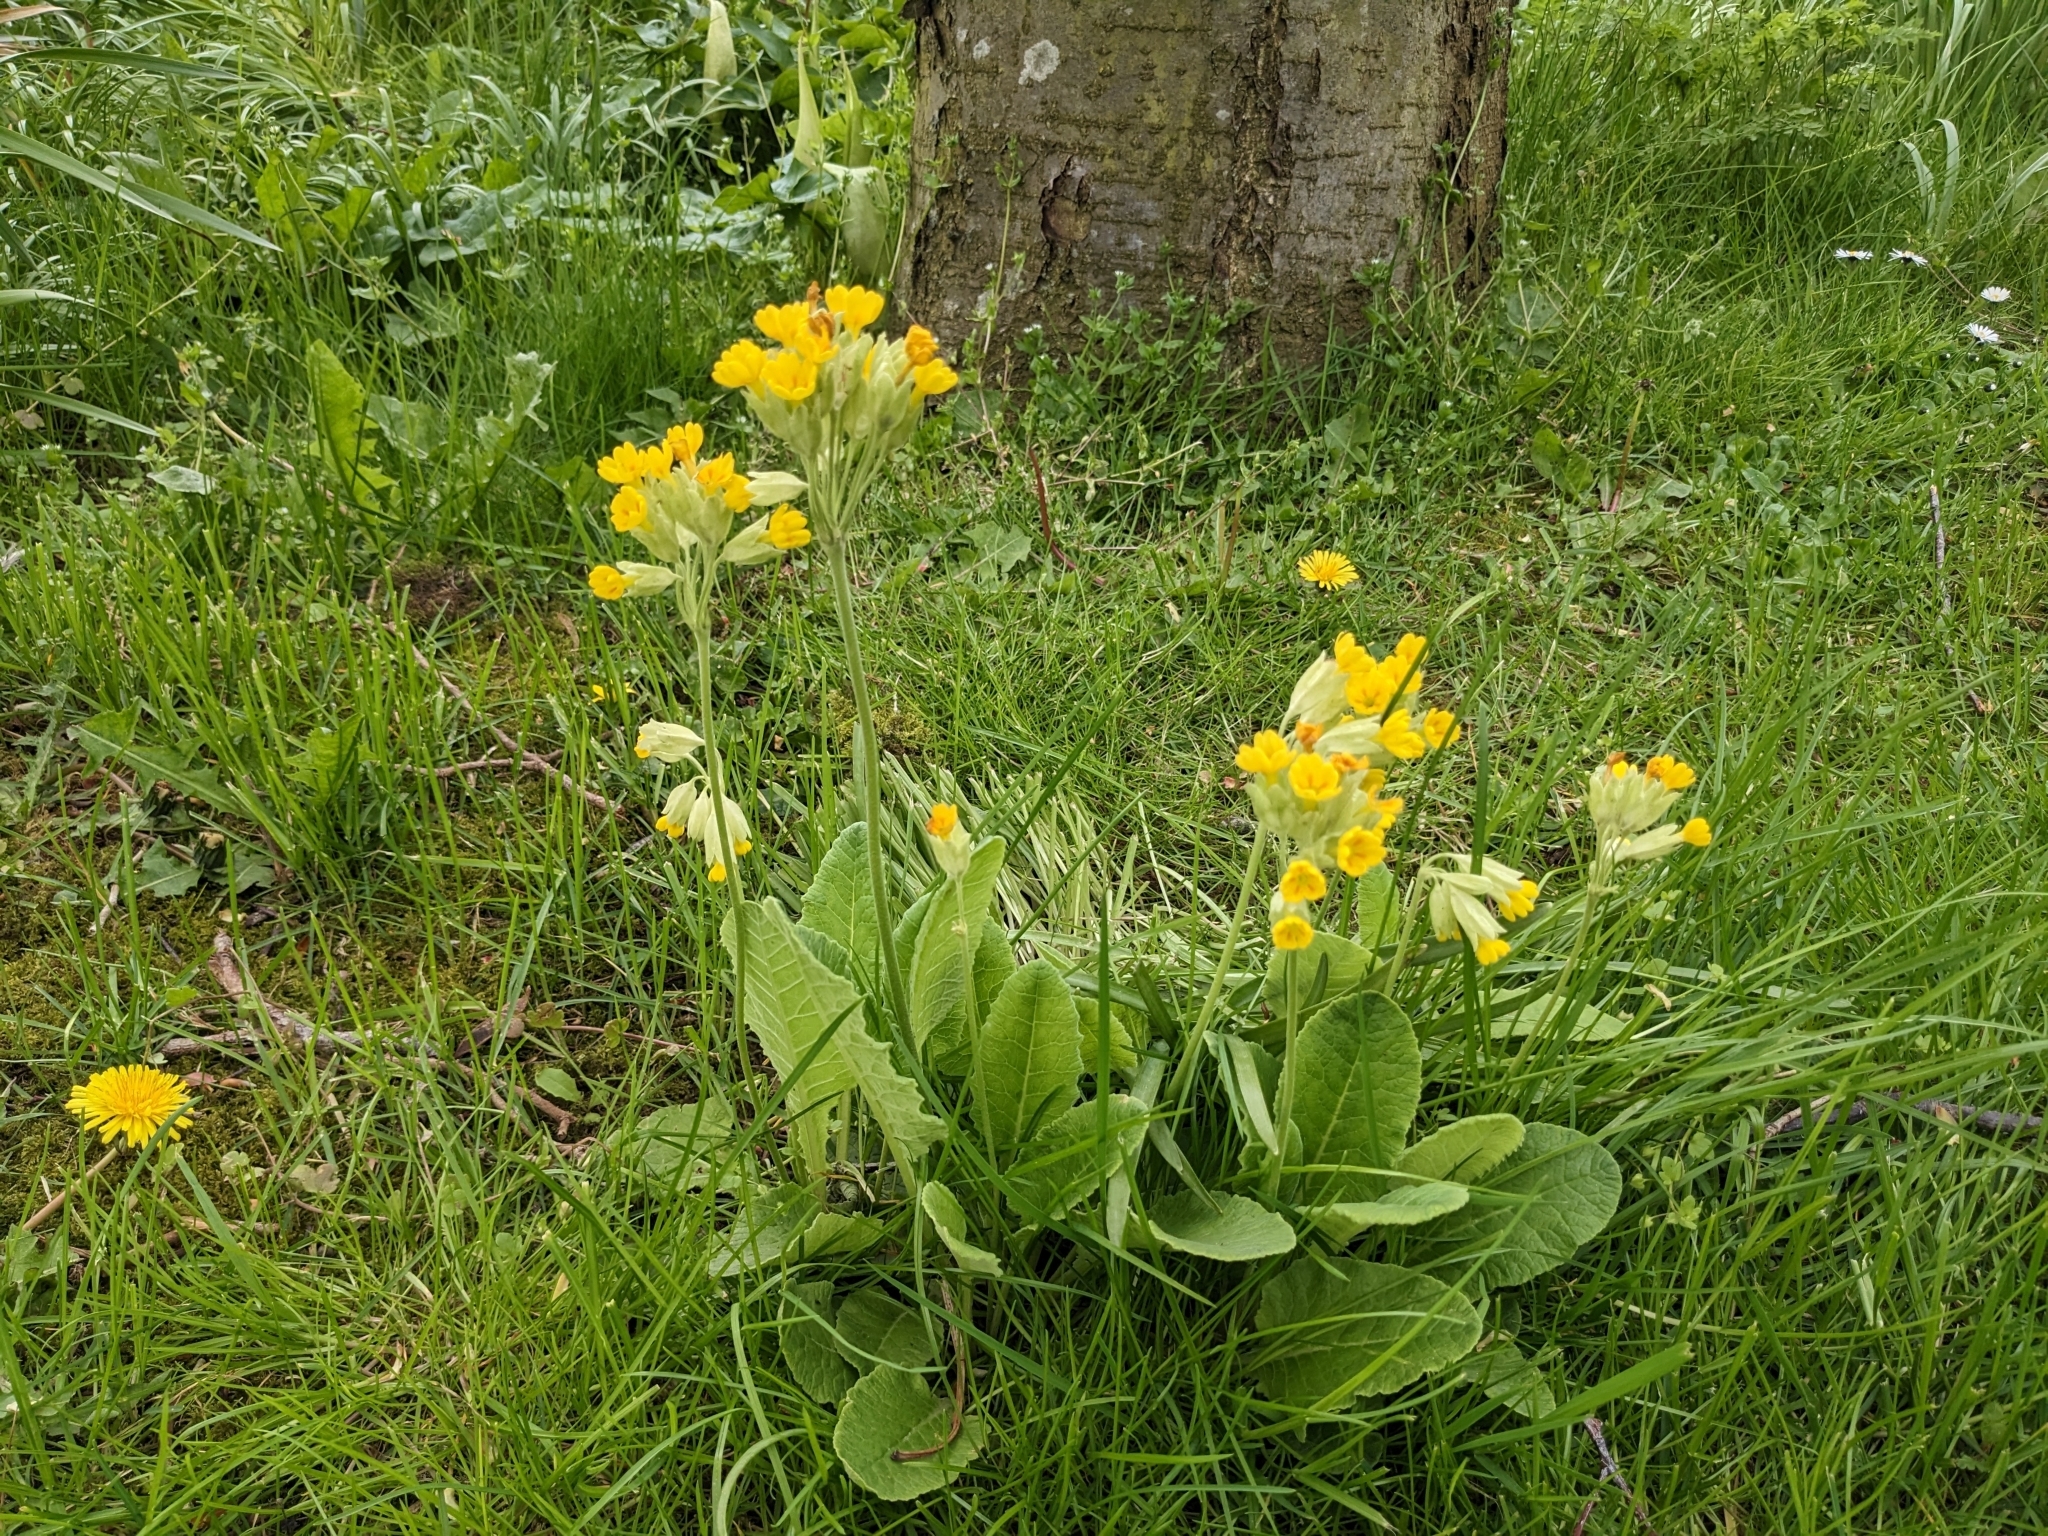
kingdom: Plantae
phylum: Tracheophyta
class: Magnoliopsida
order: Ericales
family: Primulaceae
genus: Primula
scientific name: Primula veris
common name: Cowslip
